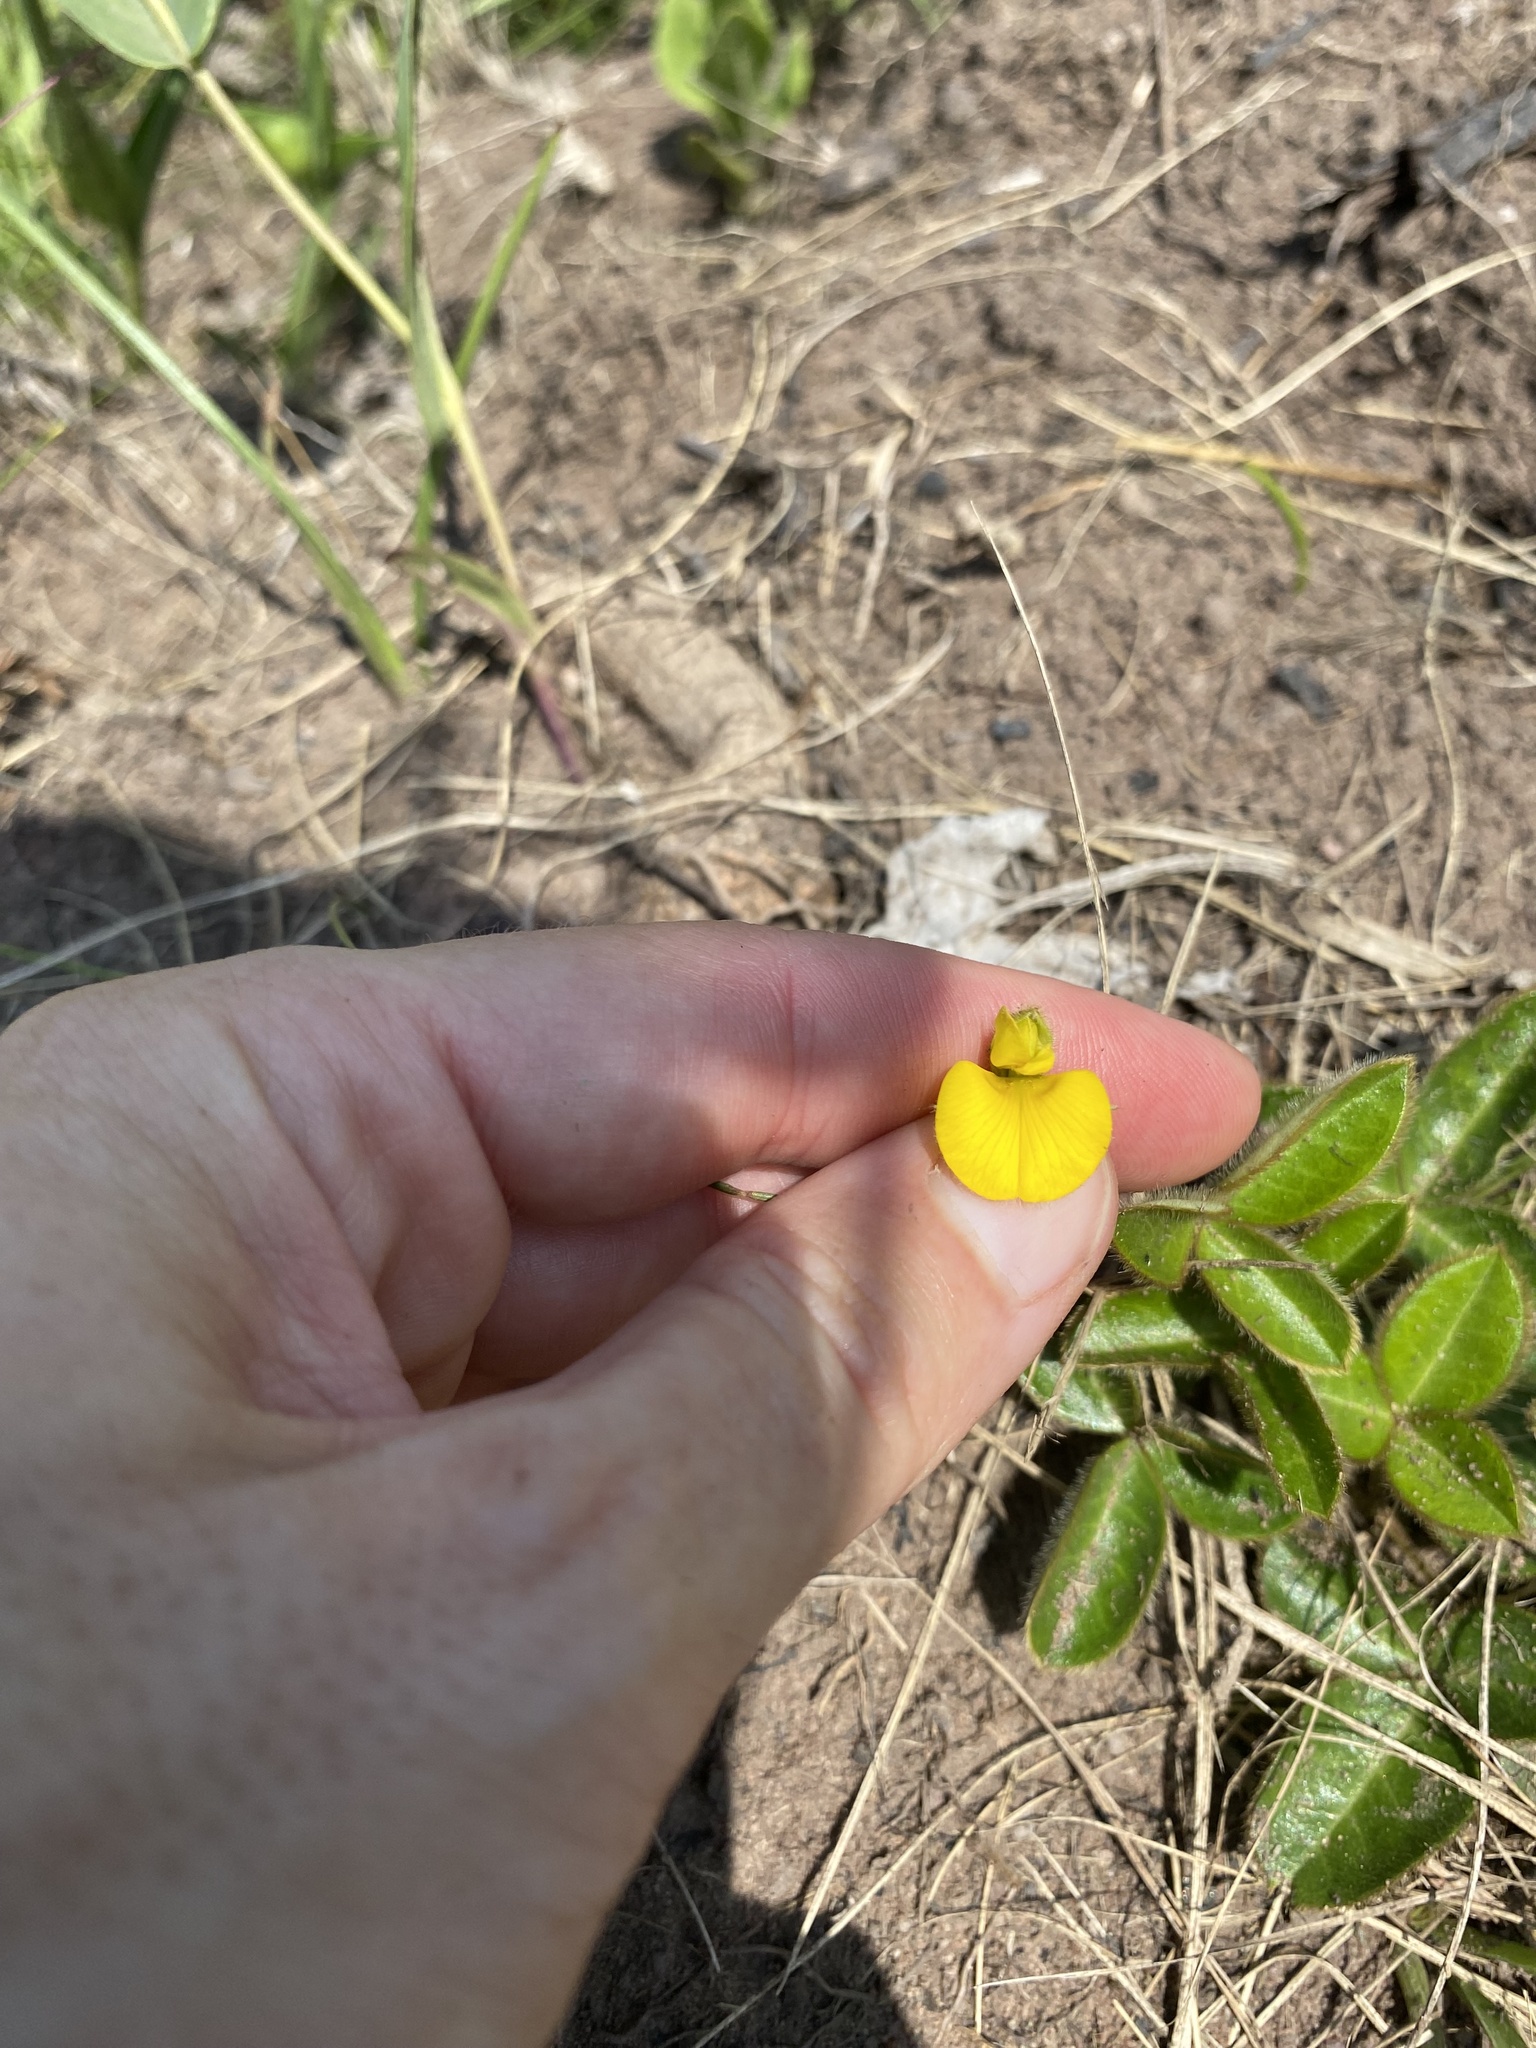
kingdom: Plantae
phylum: Tracheophyta
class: Magnoliopsida
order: Fabales
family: Fabaceae
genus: Argyrolobium
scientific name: Argyrolobium rotundifolium
